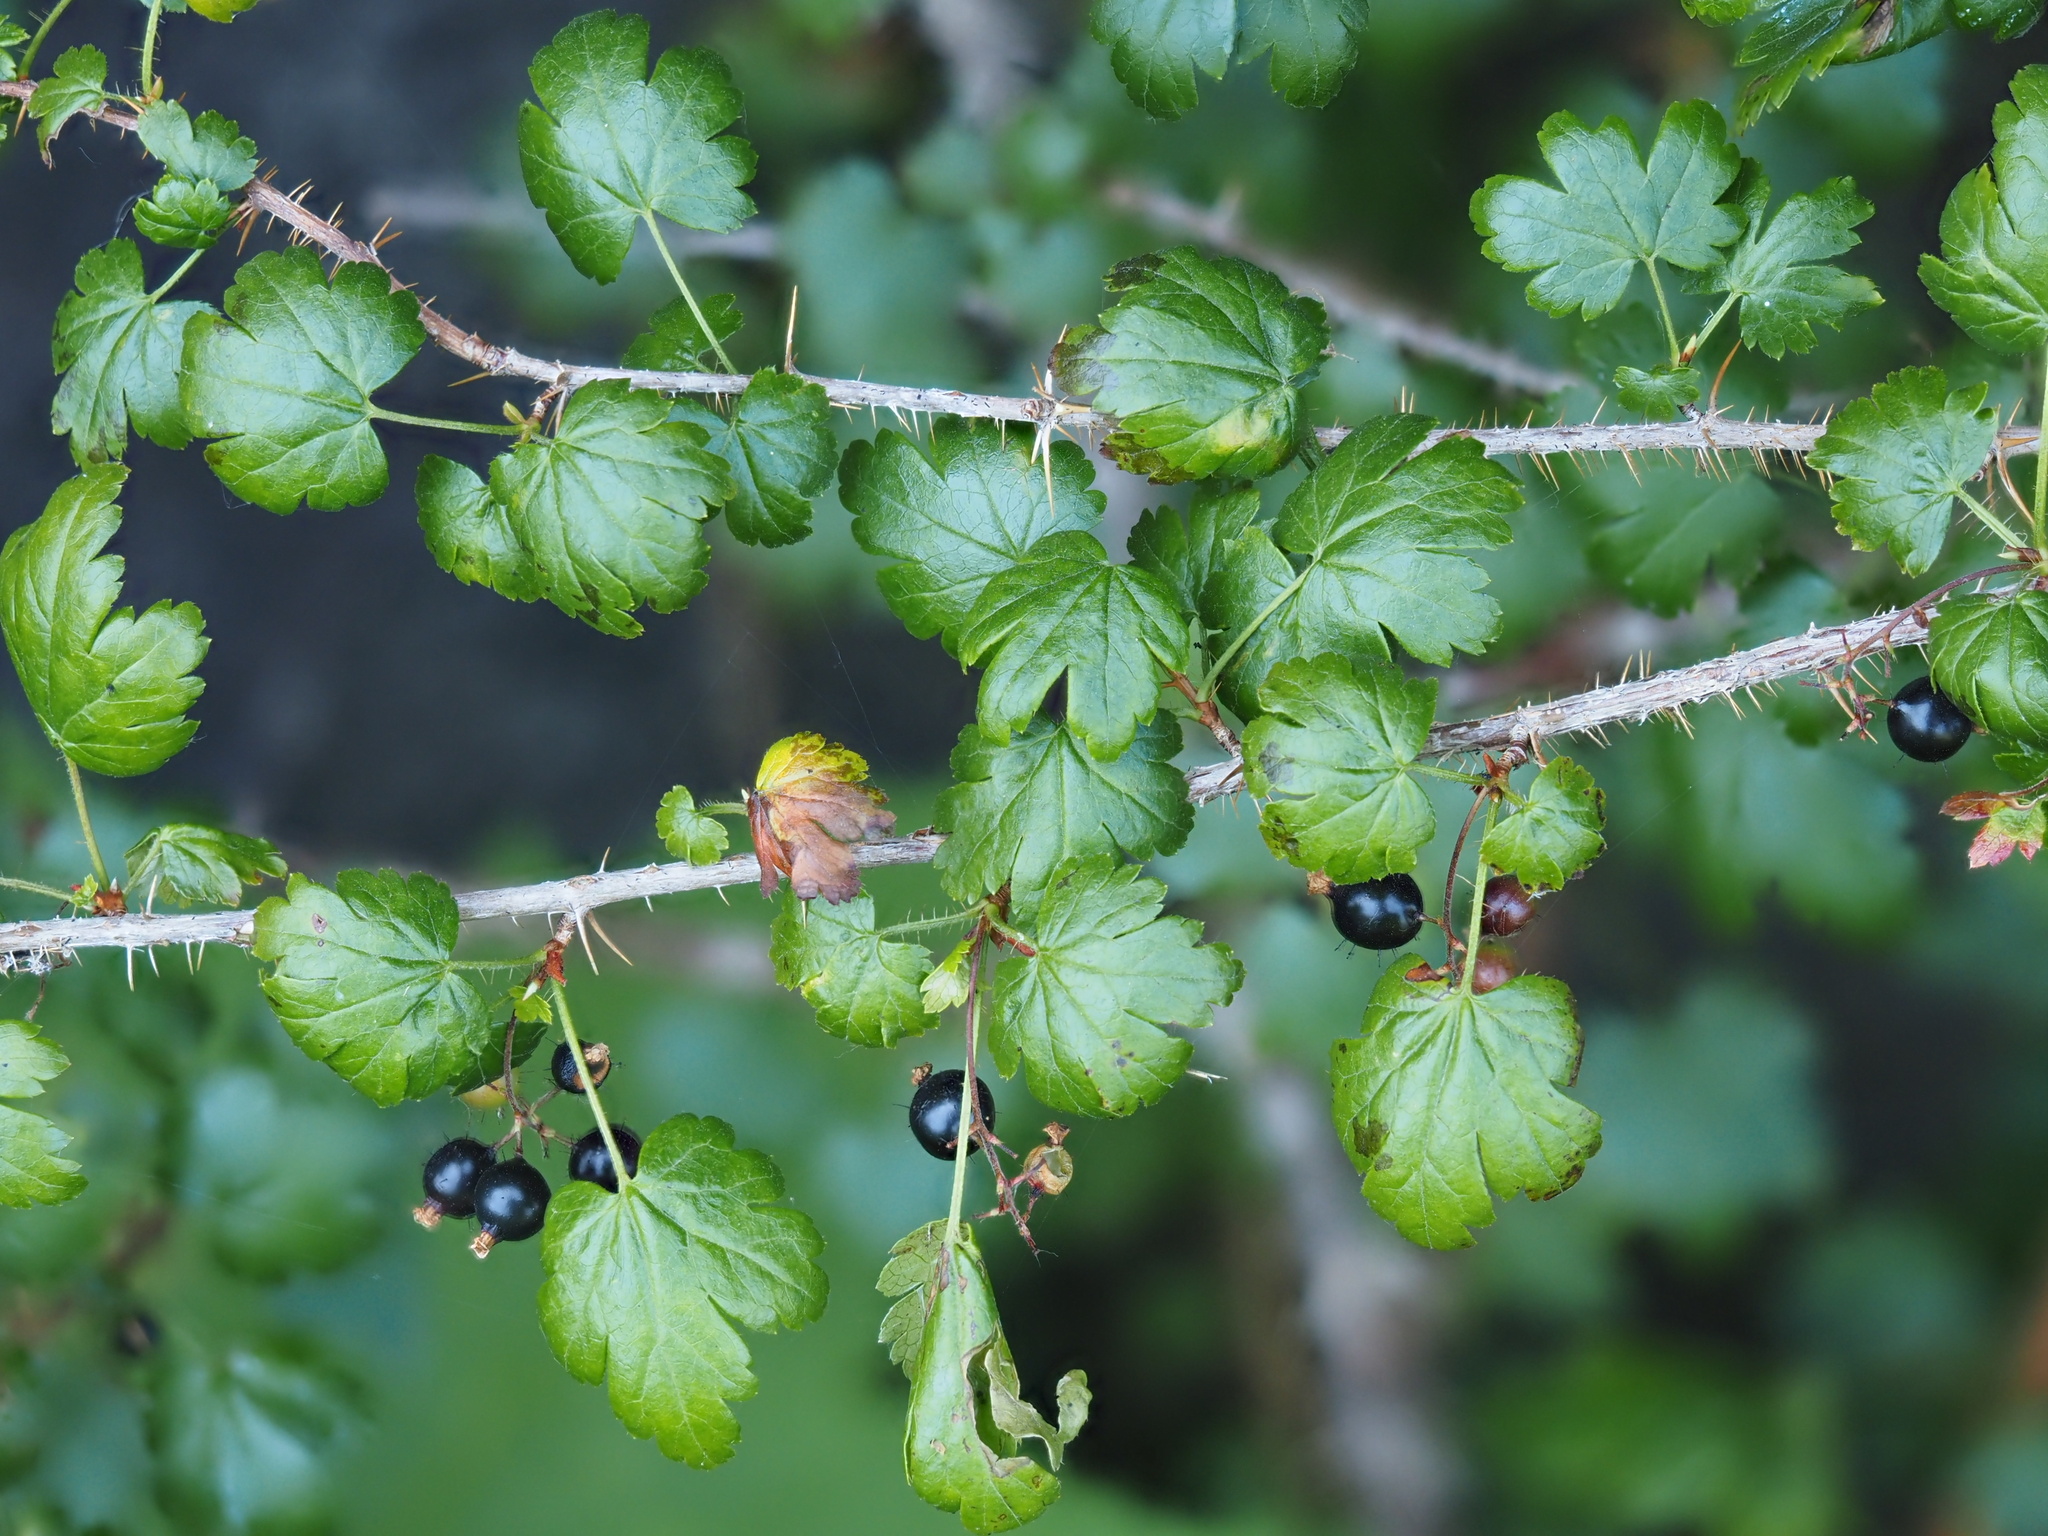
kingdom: Plantae
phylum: Tracheophyta
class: Magnoliopsida
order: Saxifragales
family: Grossulariaceae
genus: Ribes
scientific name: Ribes lacustre
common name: Black gooseberry
